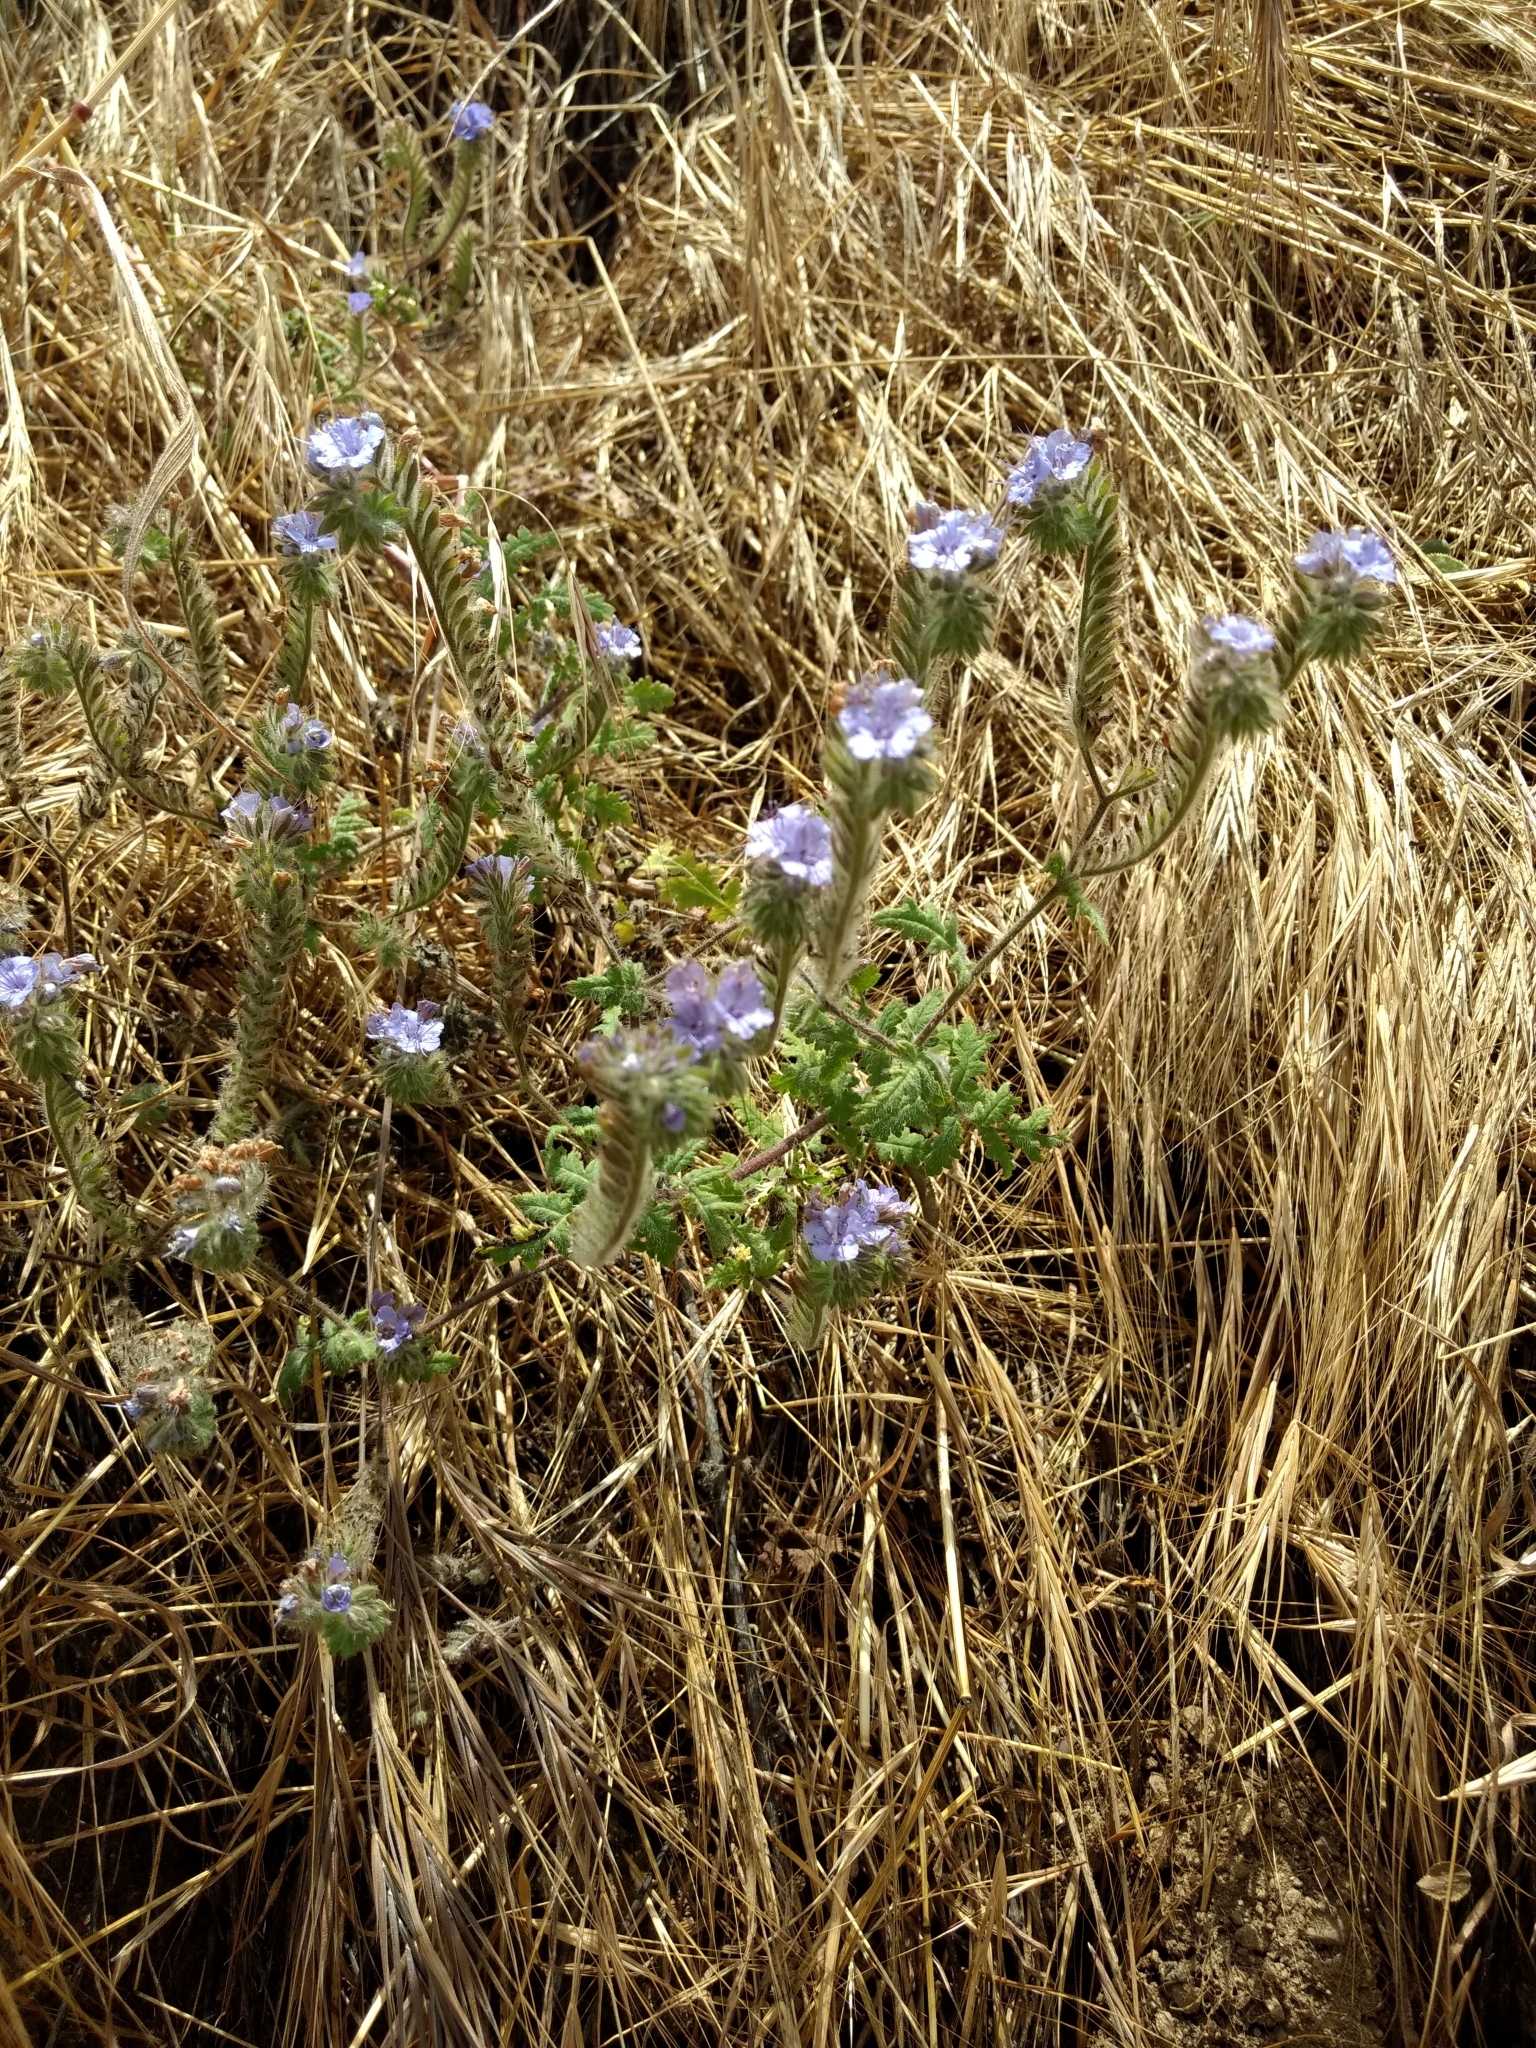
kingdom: Plantae
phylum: Tracheophyta
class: Magnoliopsida
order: Boraginales
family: Hydrophyllaceae
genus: Phacelia
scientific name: Phacelia distans
